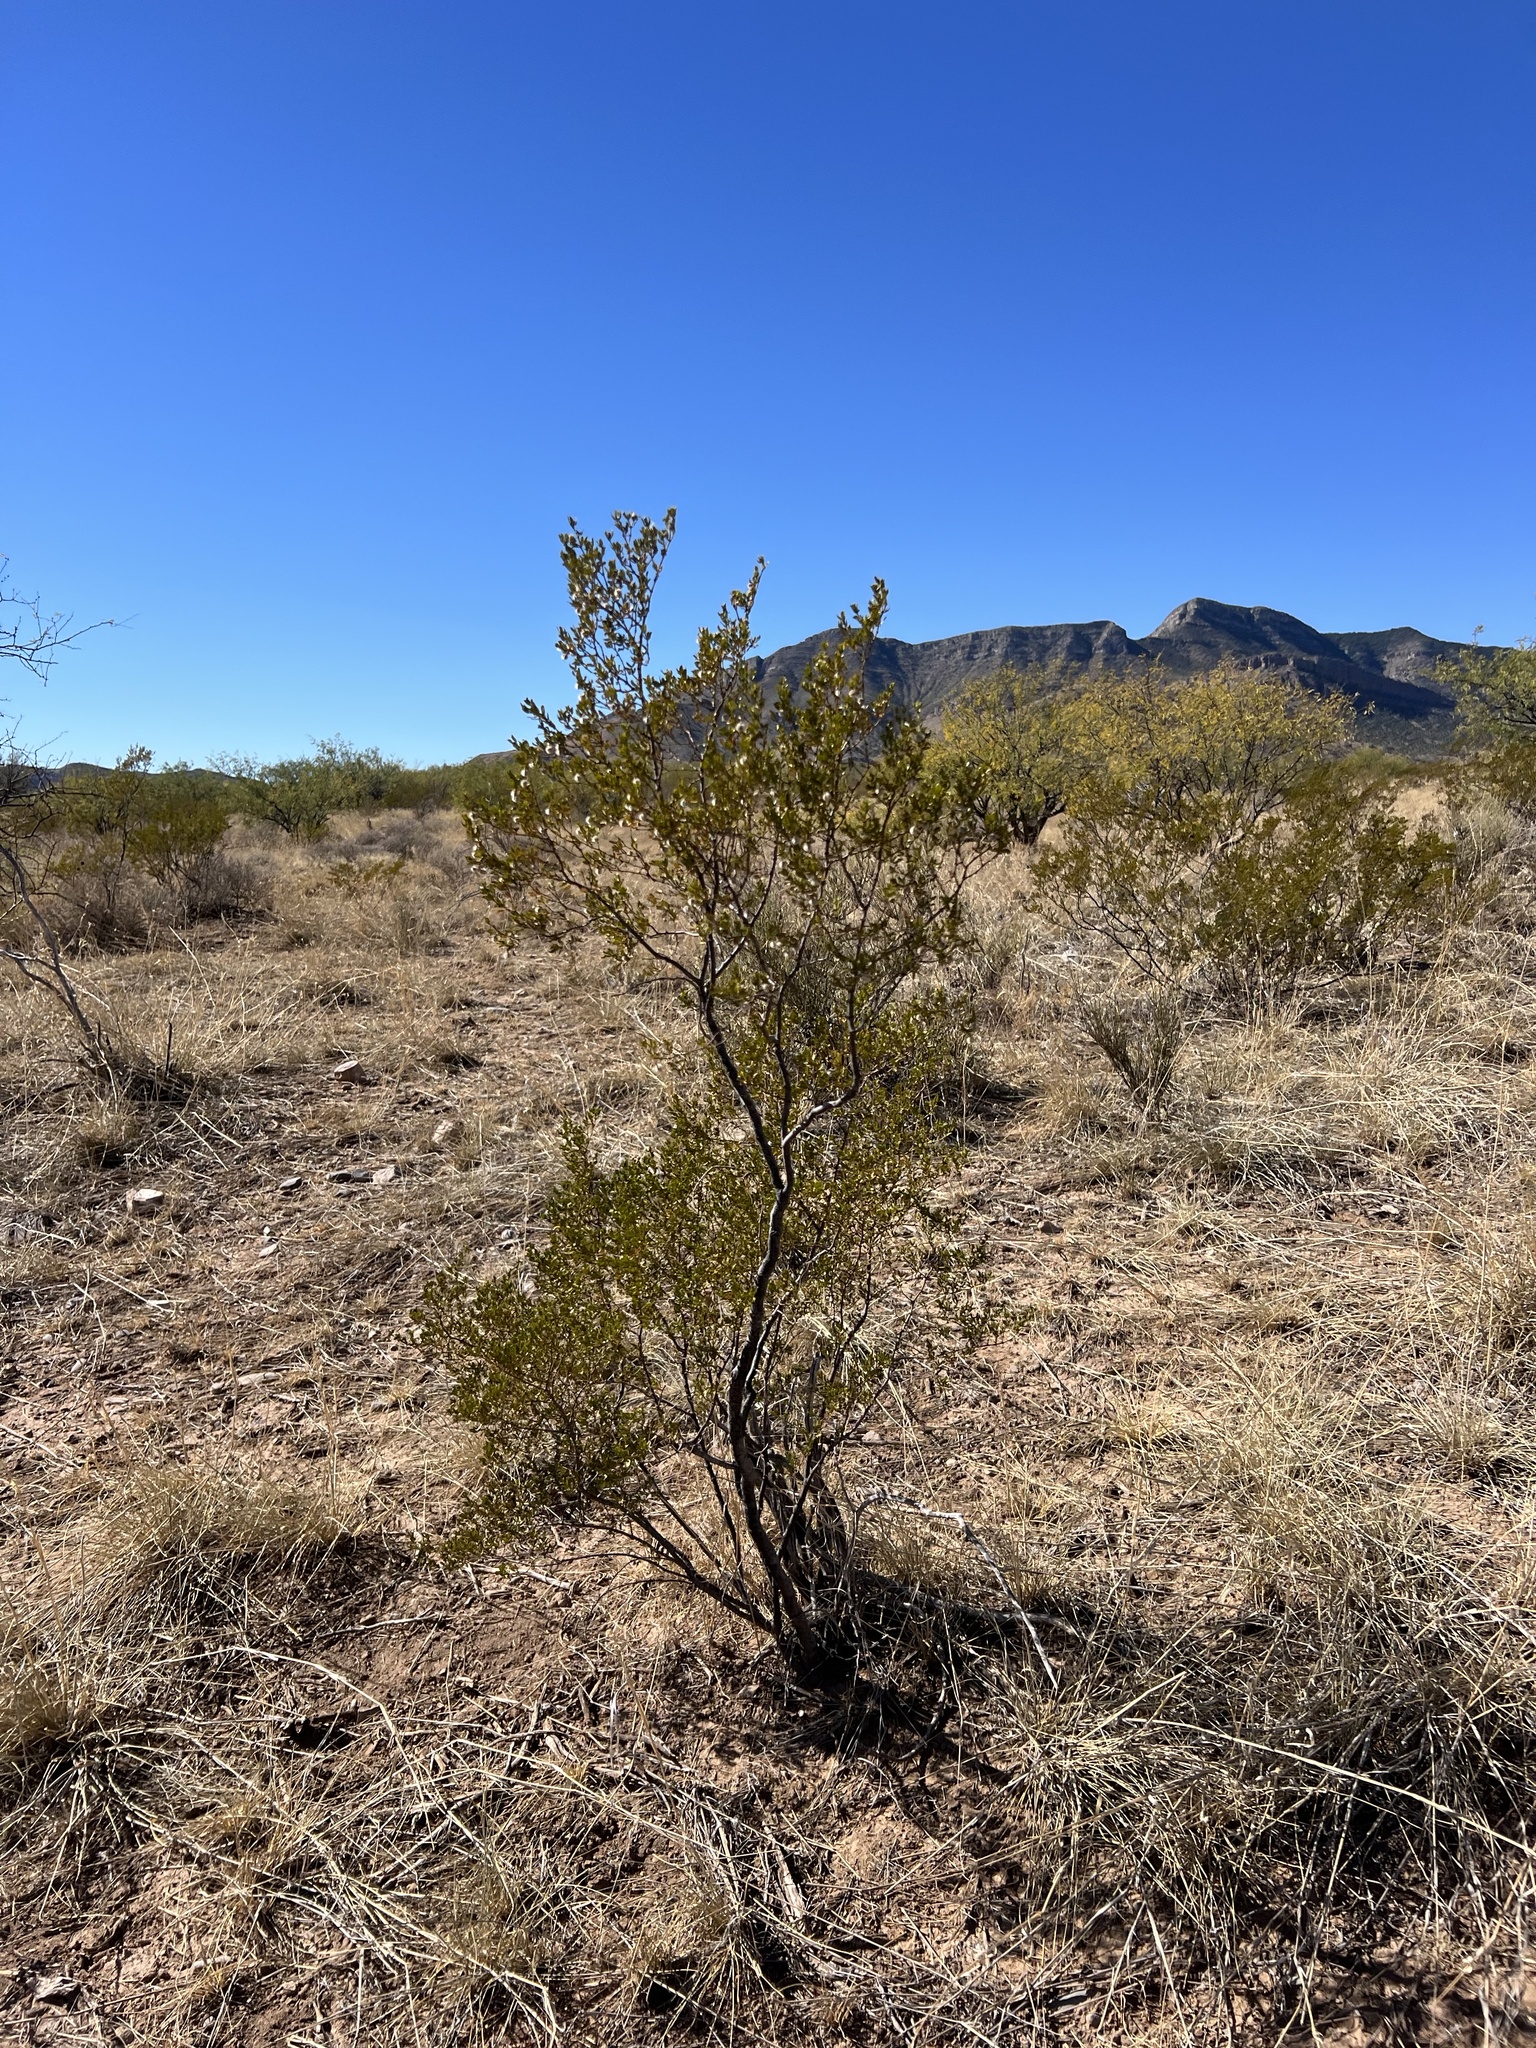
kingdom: Plantae
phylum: Tracheophyta
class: Magnoliopsida
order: Zygophyllales
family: Zygophyllaceae
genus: Larrea
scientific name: Larrea tridentata
